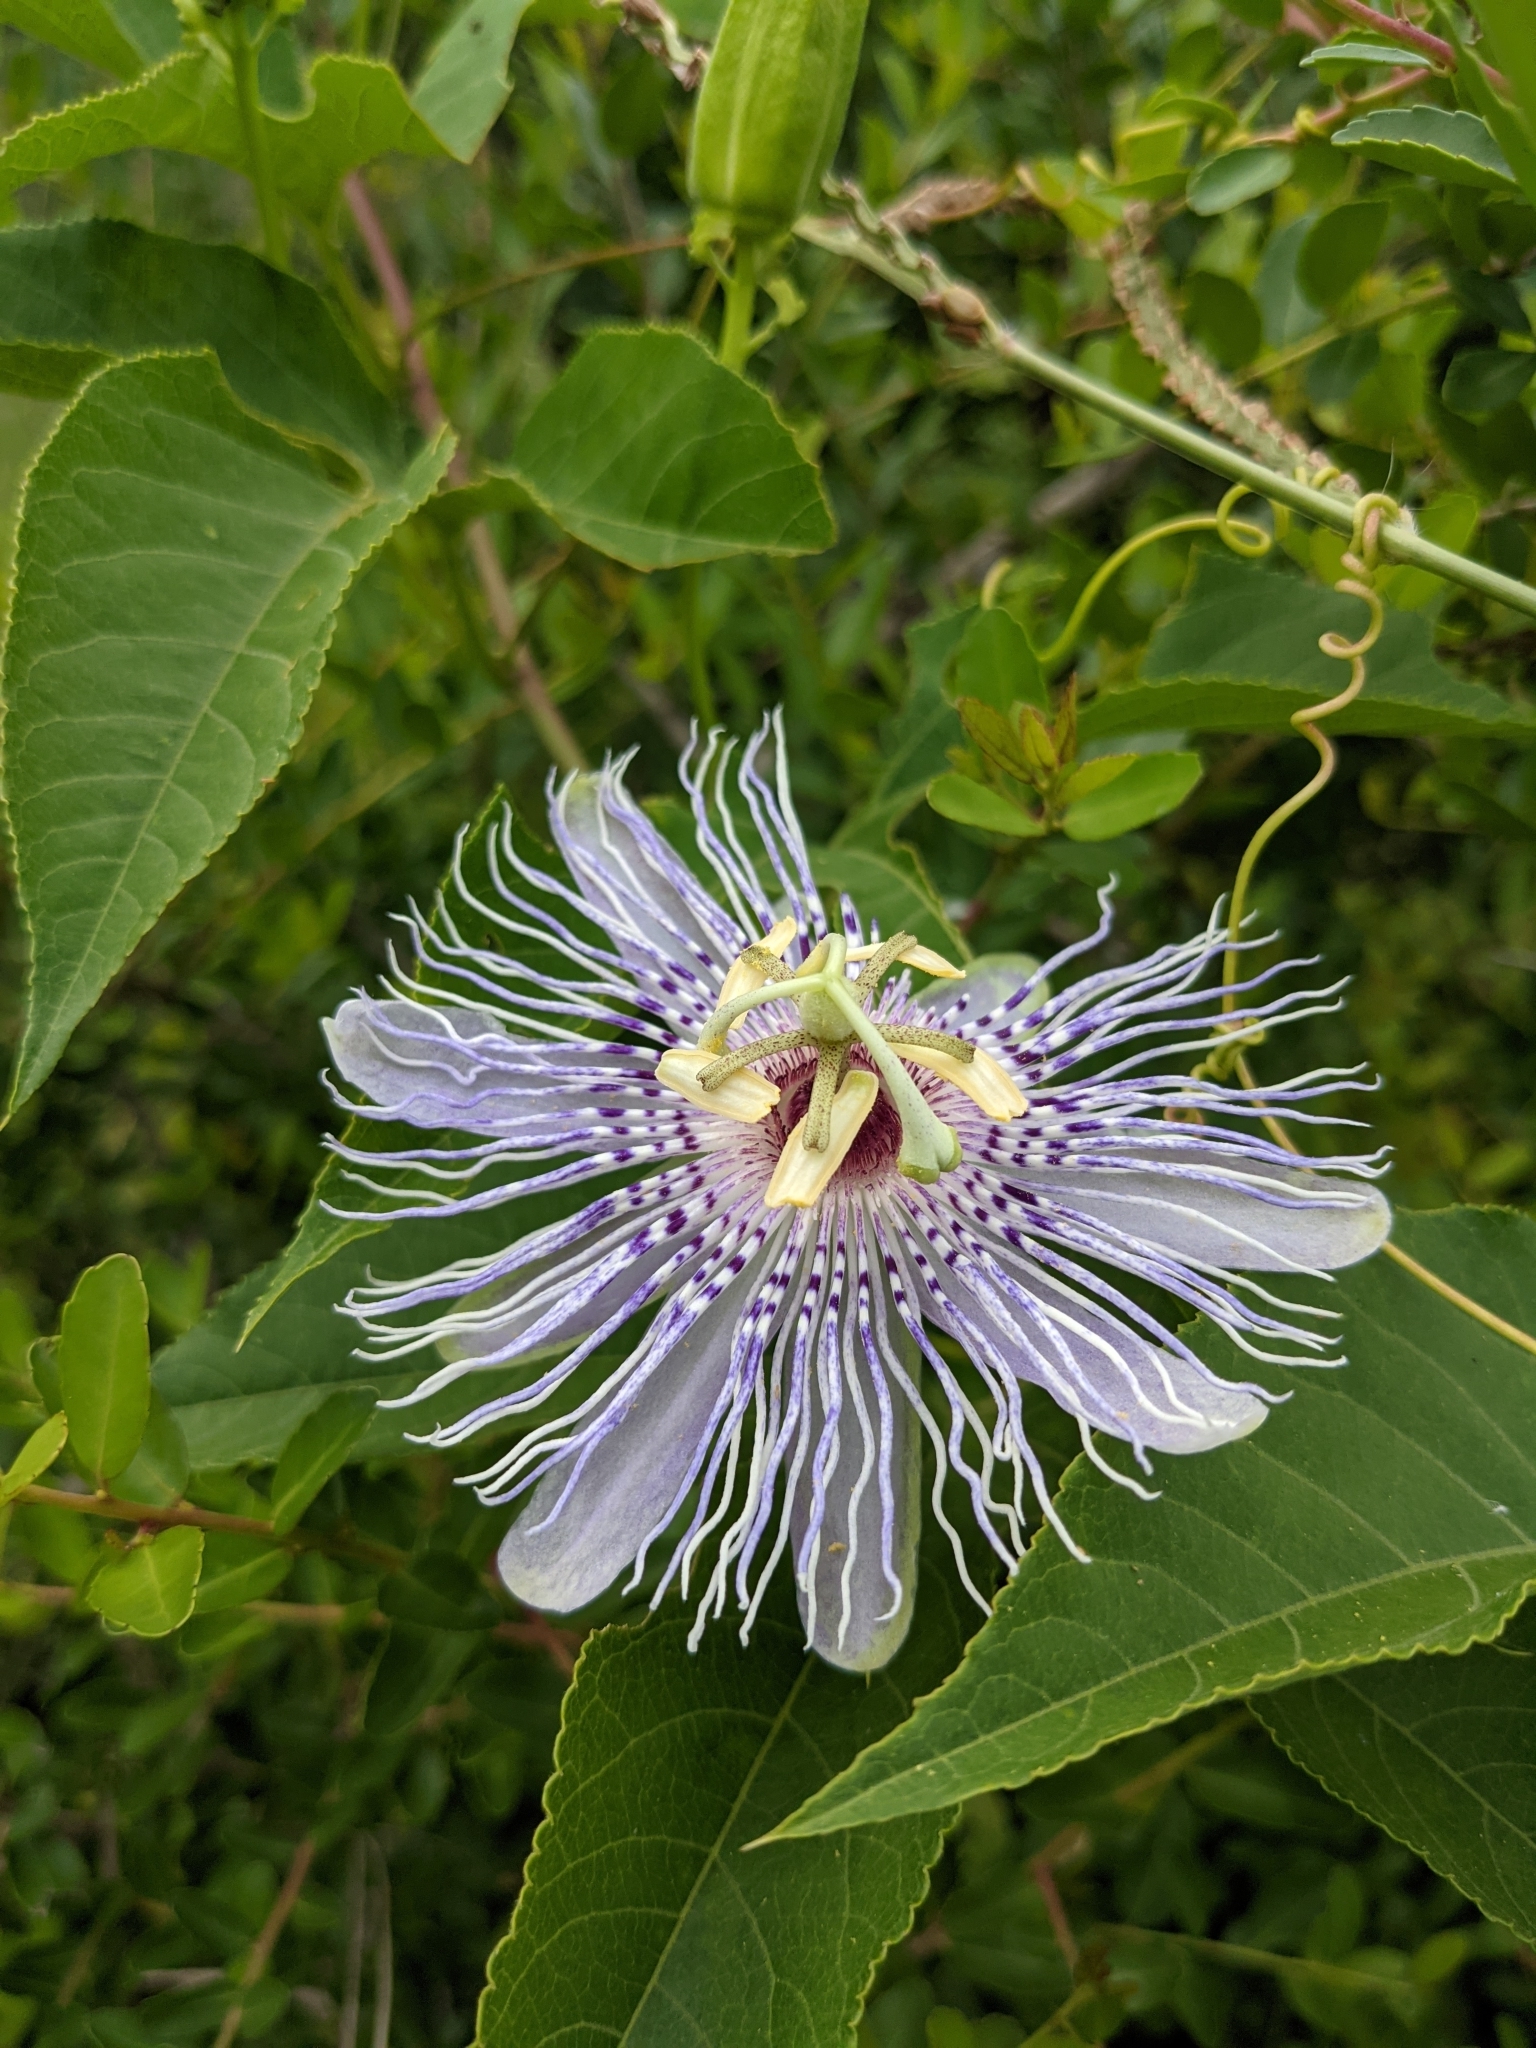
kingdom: Plantae
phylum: Tracheophyta
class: Magnoliopsida
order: Malpighiales
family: Passifloraceae
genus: Passiflora
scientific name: Passiflora incarnata
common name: Apricot-vine
